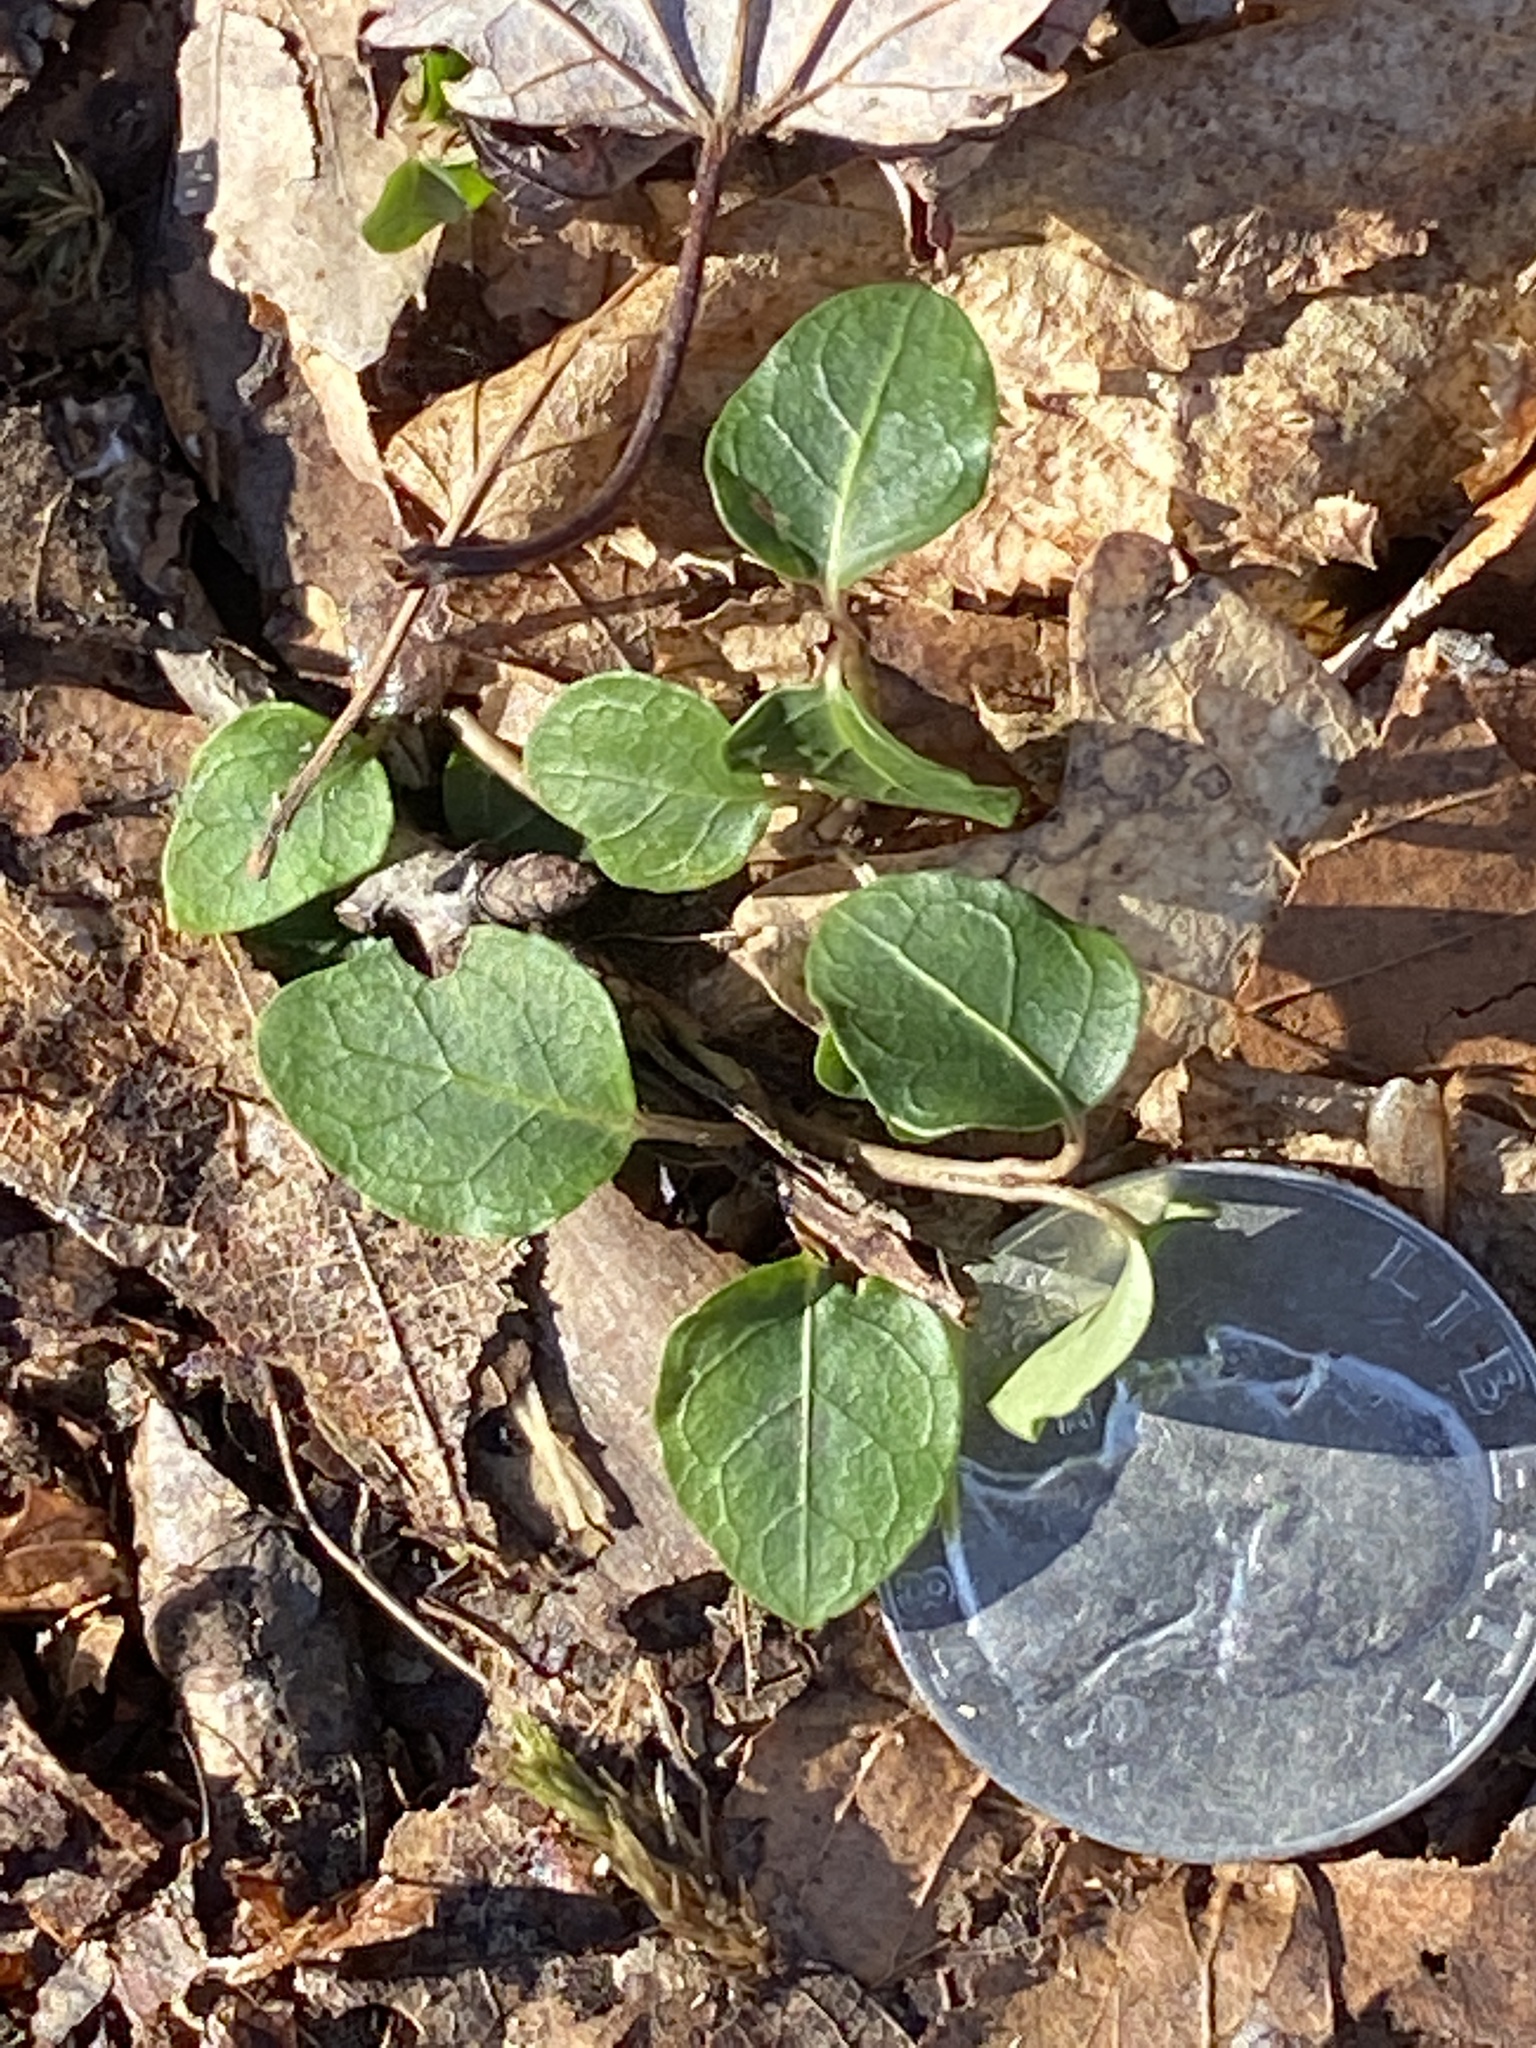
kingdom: Plantae
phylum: Tracheophyta
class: Magnoliopsida
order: Gentianales
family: Rubiaceae
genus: Mitchella
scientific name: Mitchella repens
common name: Partridge-berry
